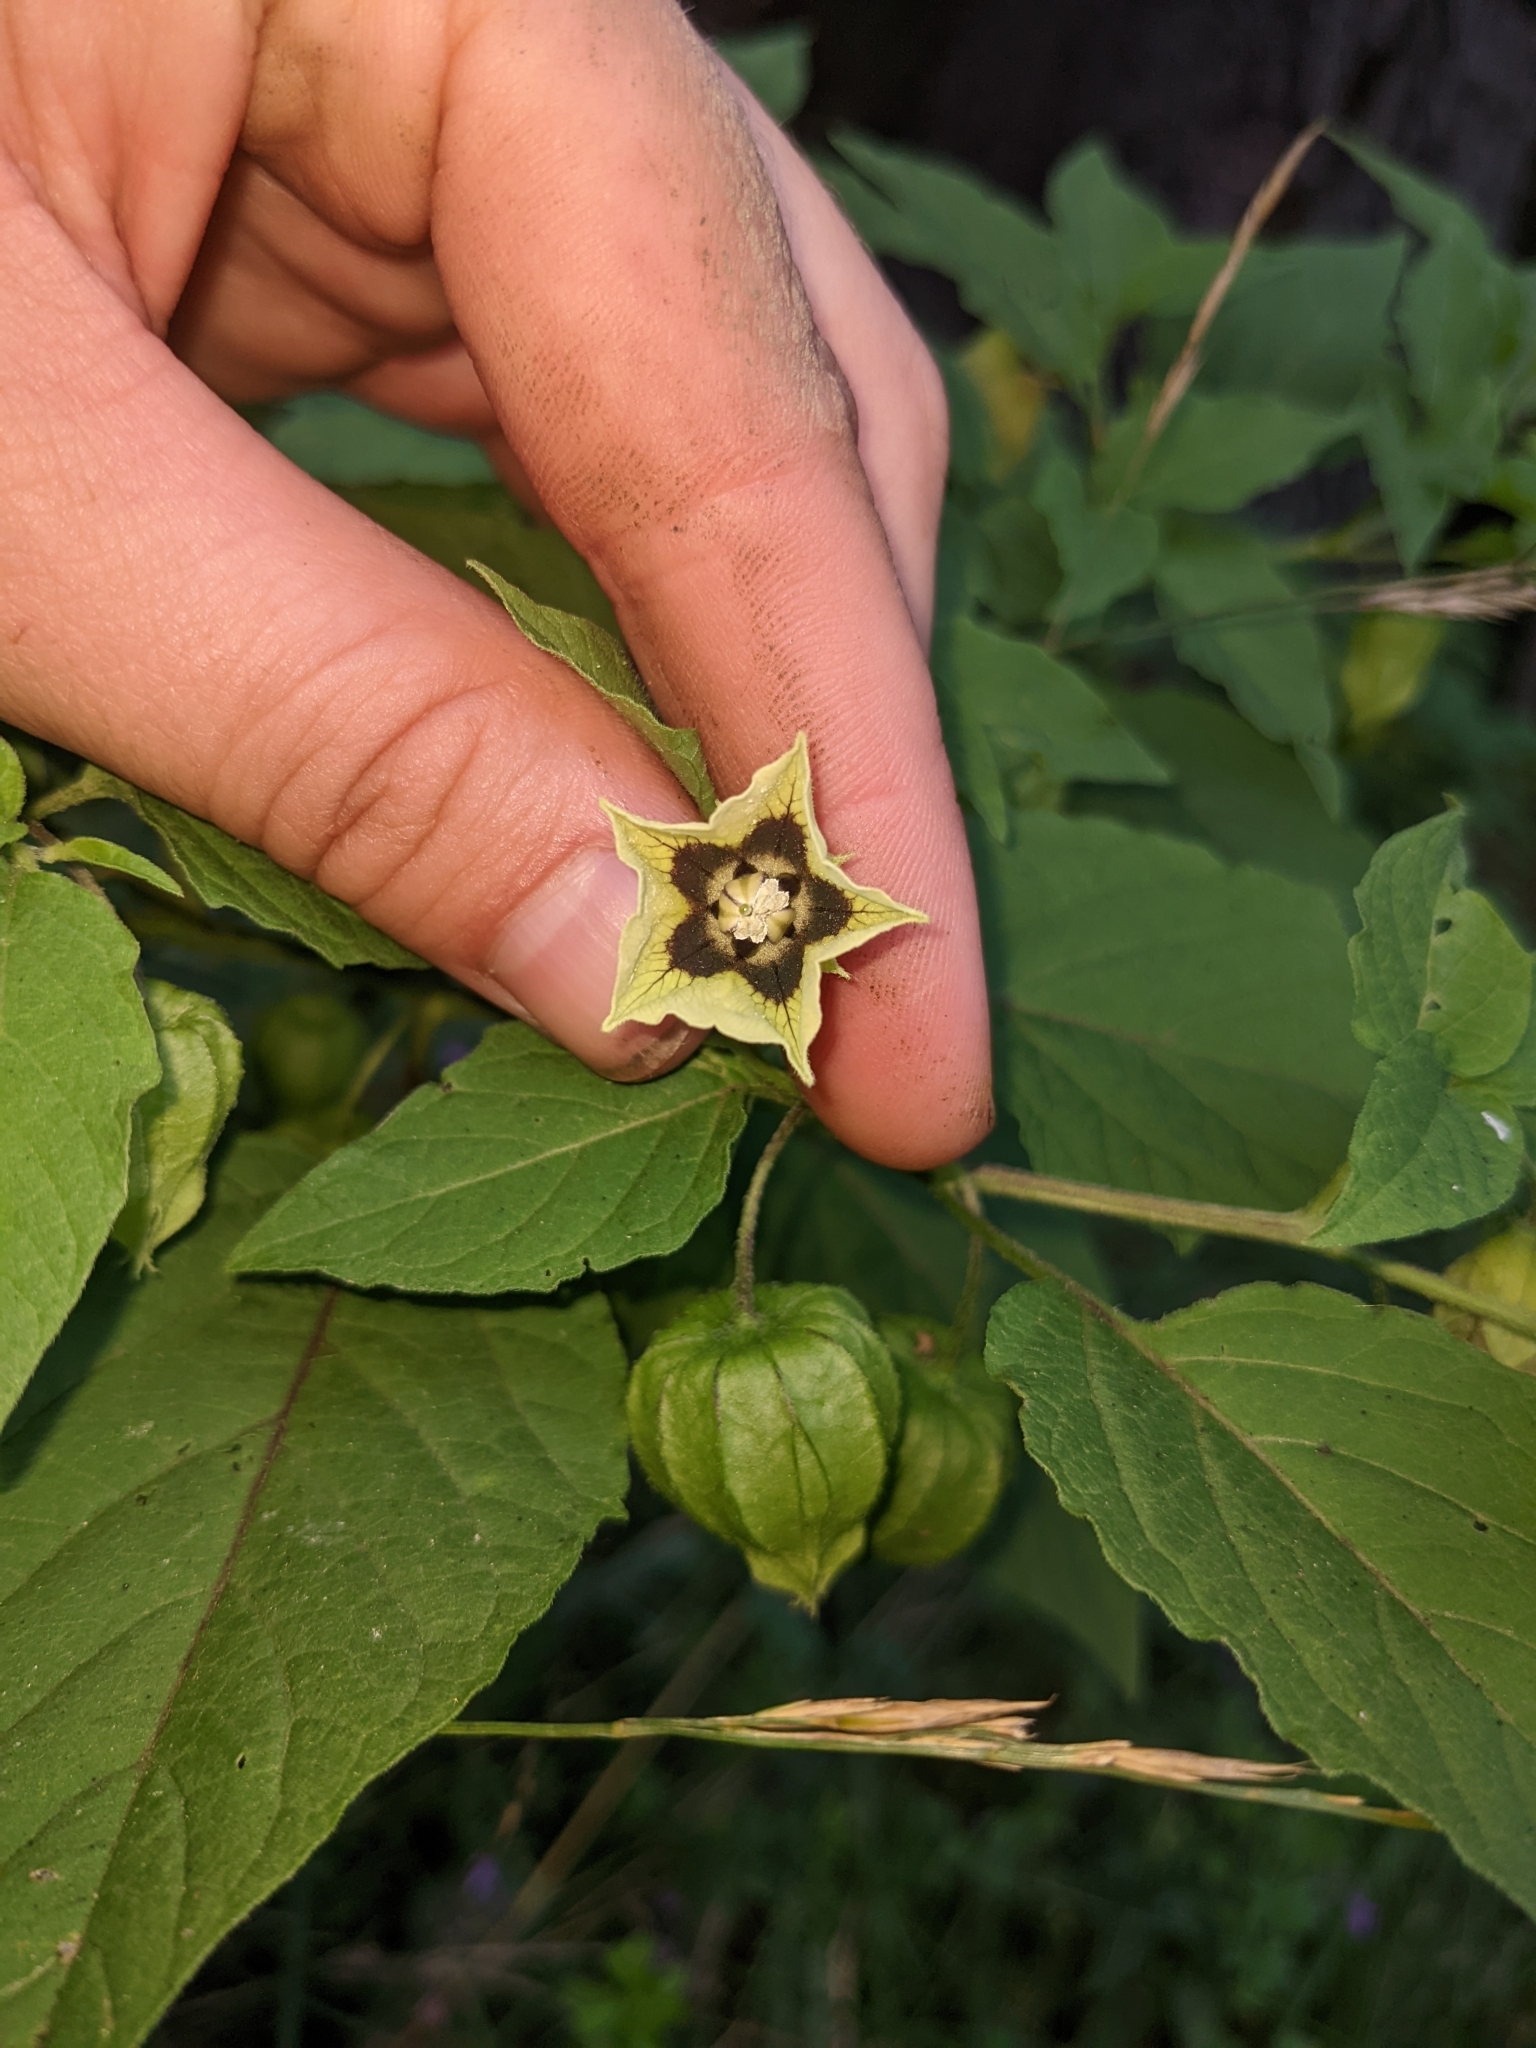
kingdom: Plantae
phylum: Tracheophyta
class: Magnoliopsida
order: Solanales
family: Solanaceae
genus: Physalis
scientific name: Physalis longifolia
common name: Common ground-cherry
